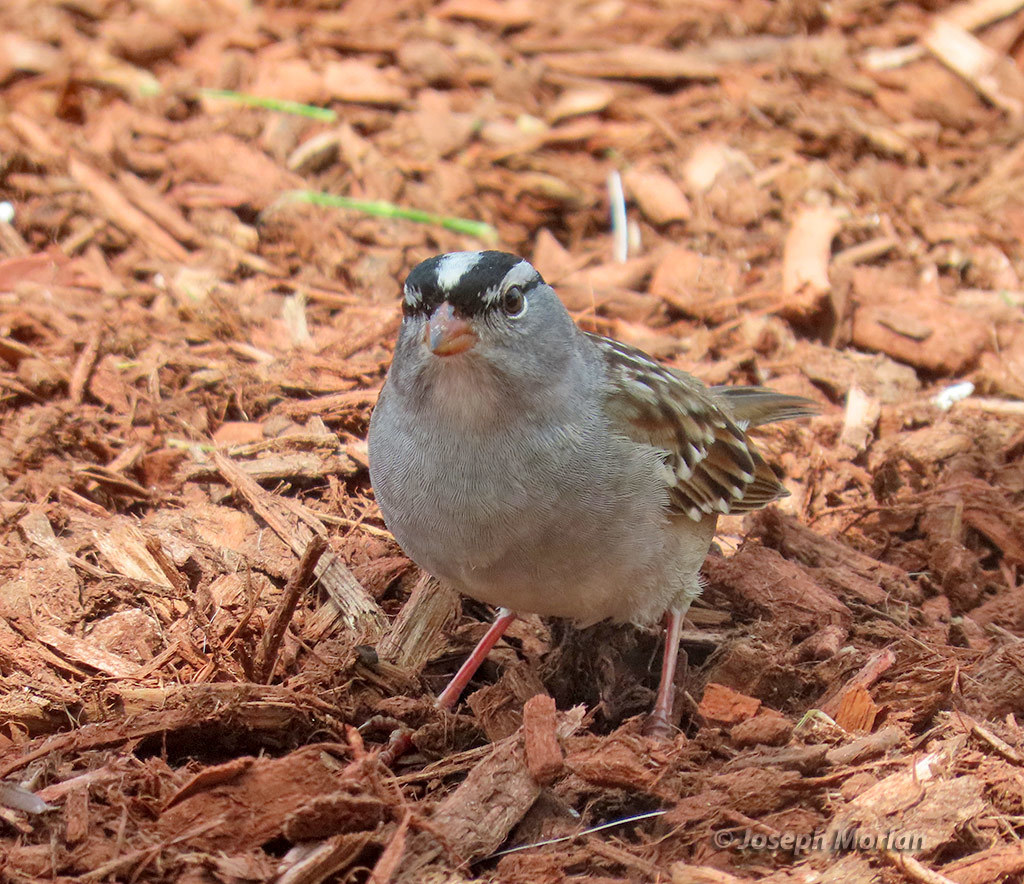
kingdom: Animalia
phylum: Chordata
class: Aves
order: Passeriformes
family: Passerellidae
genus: Zonotrichia
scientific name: Zonotrichia leucophrys
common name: White-crowned sparrow
